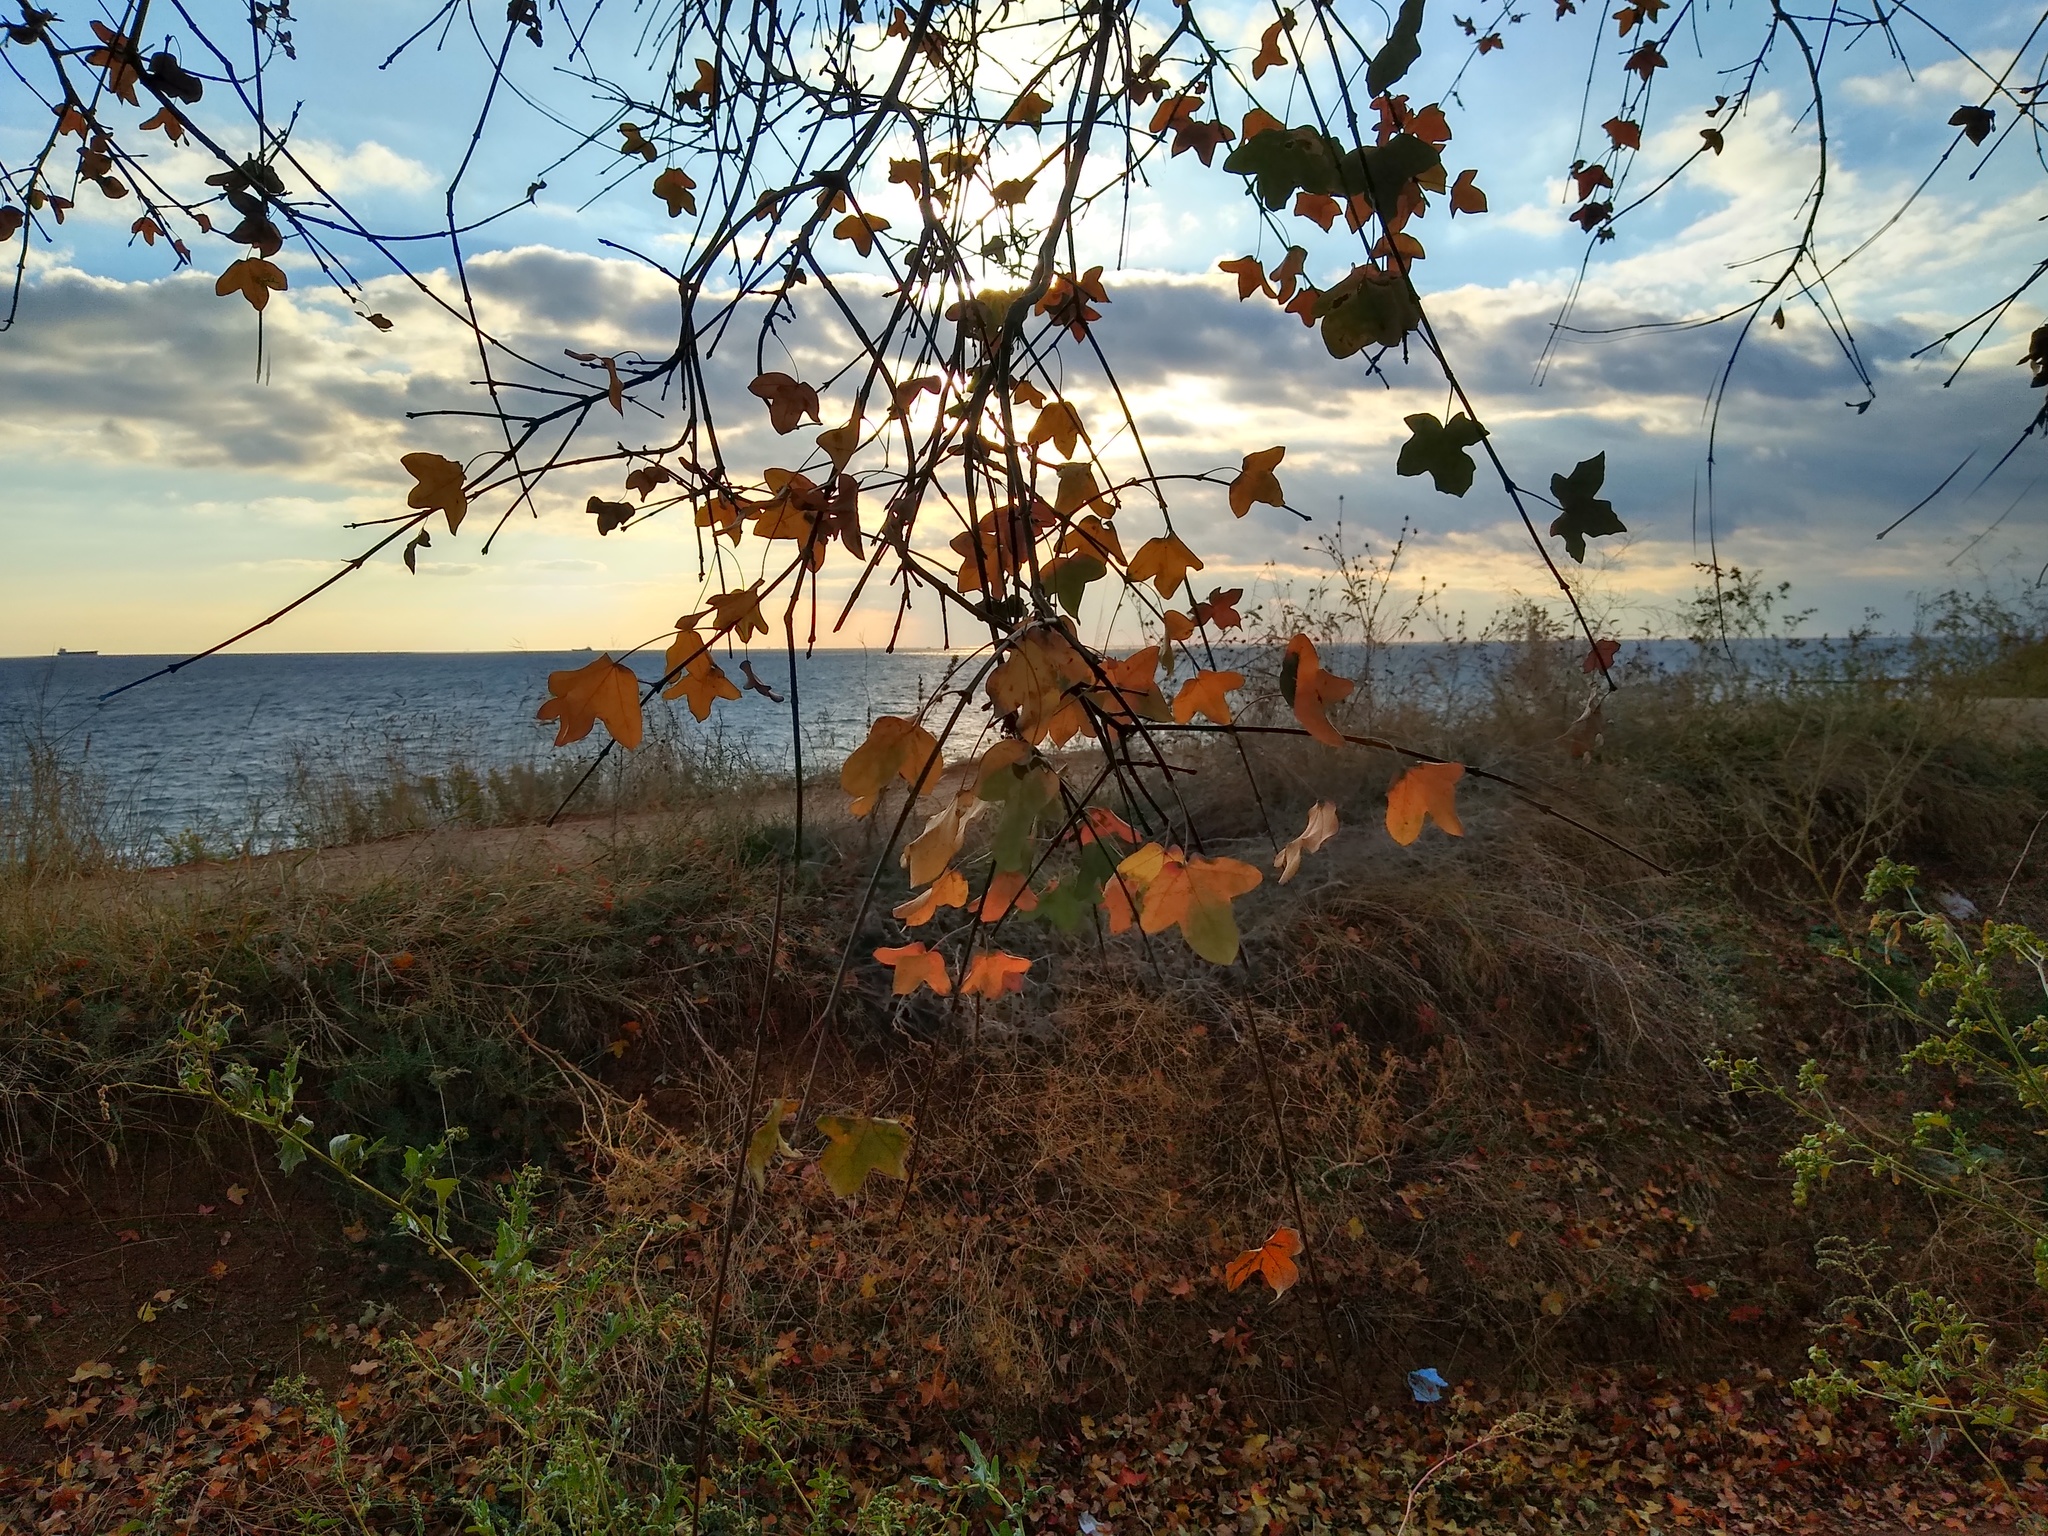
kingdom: Plantae
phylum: Tracheophyta
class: Magnoliopsida
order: Sapindales
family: Sapindaceae
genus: Acer
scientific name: Acer monspessulanum
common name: Montpellier maple
